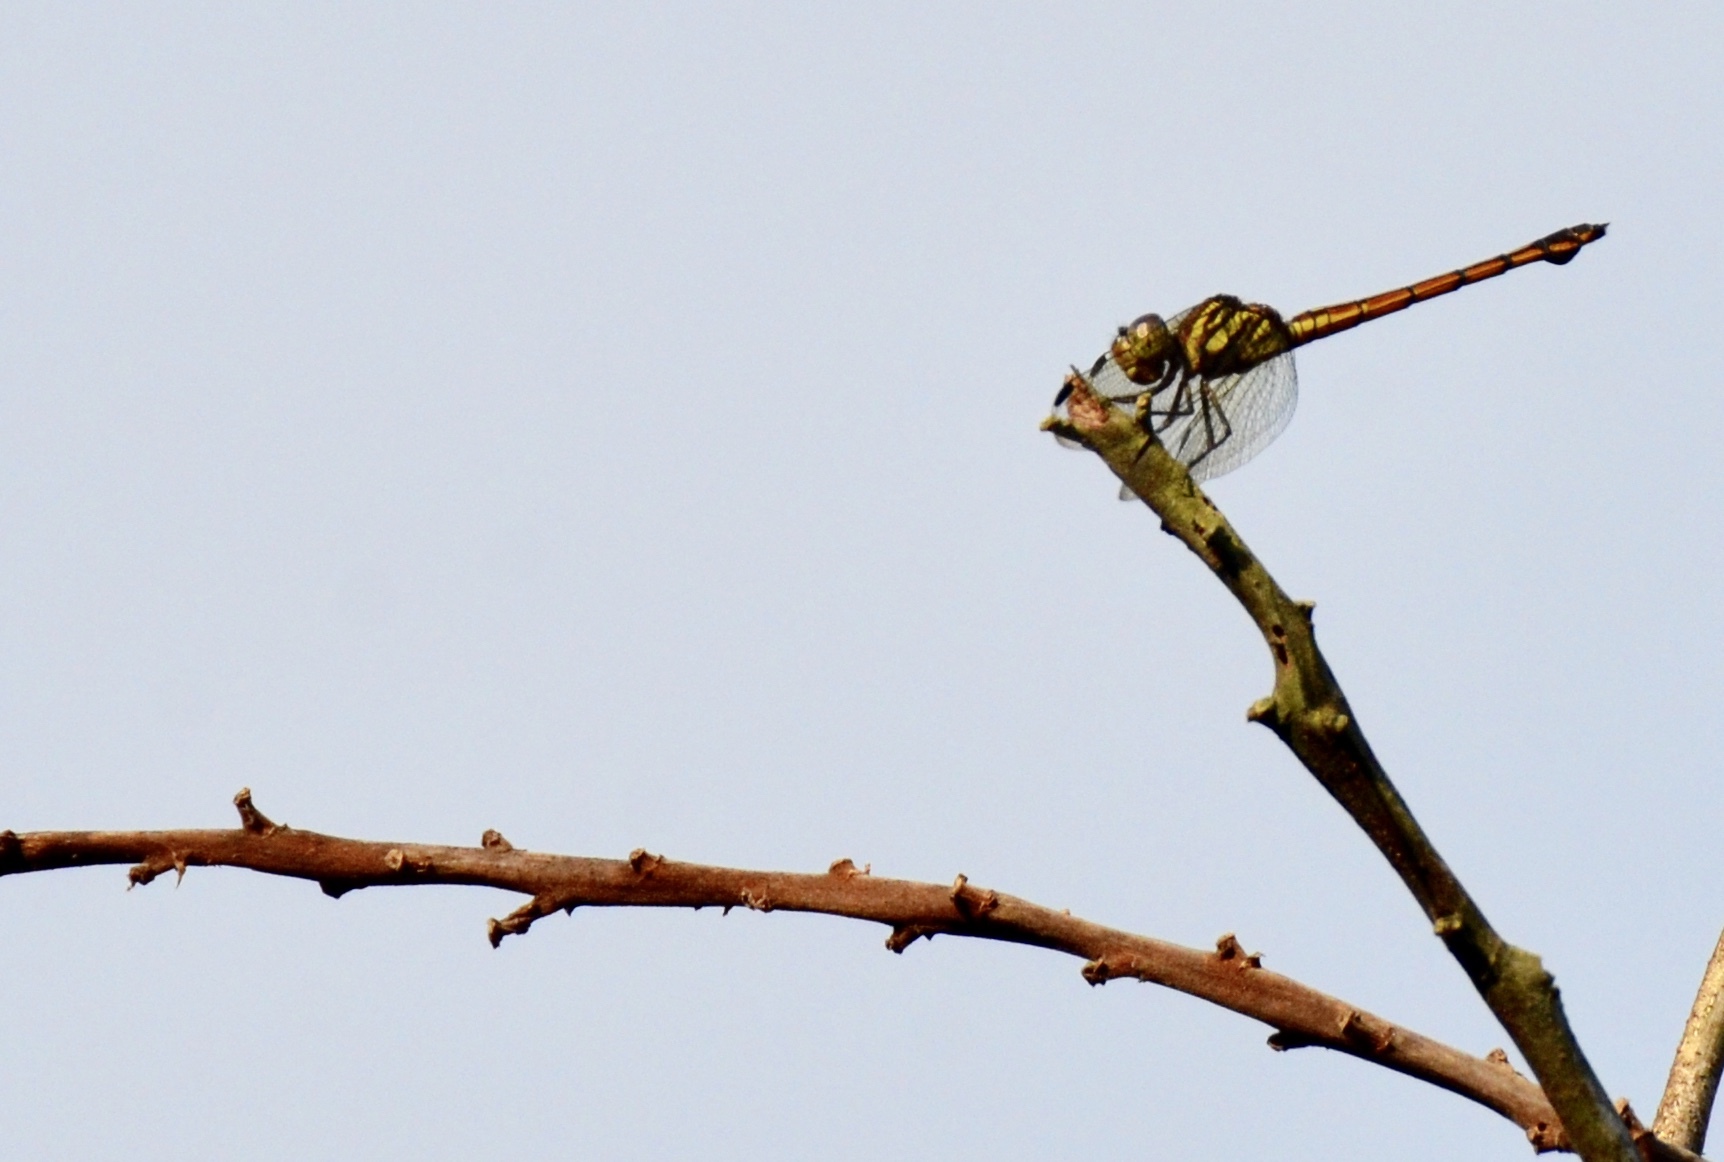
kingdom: Animalia
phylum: Arthropoda
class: Insecta
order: Odonata
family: Libellulidae
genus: Lathrecista
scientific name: Lathrecista asiatica
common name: Scarlet grenadier
